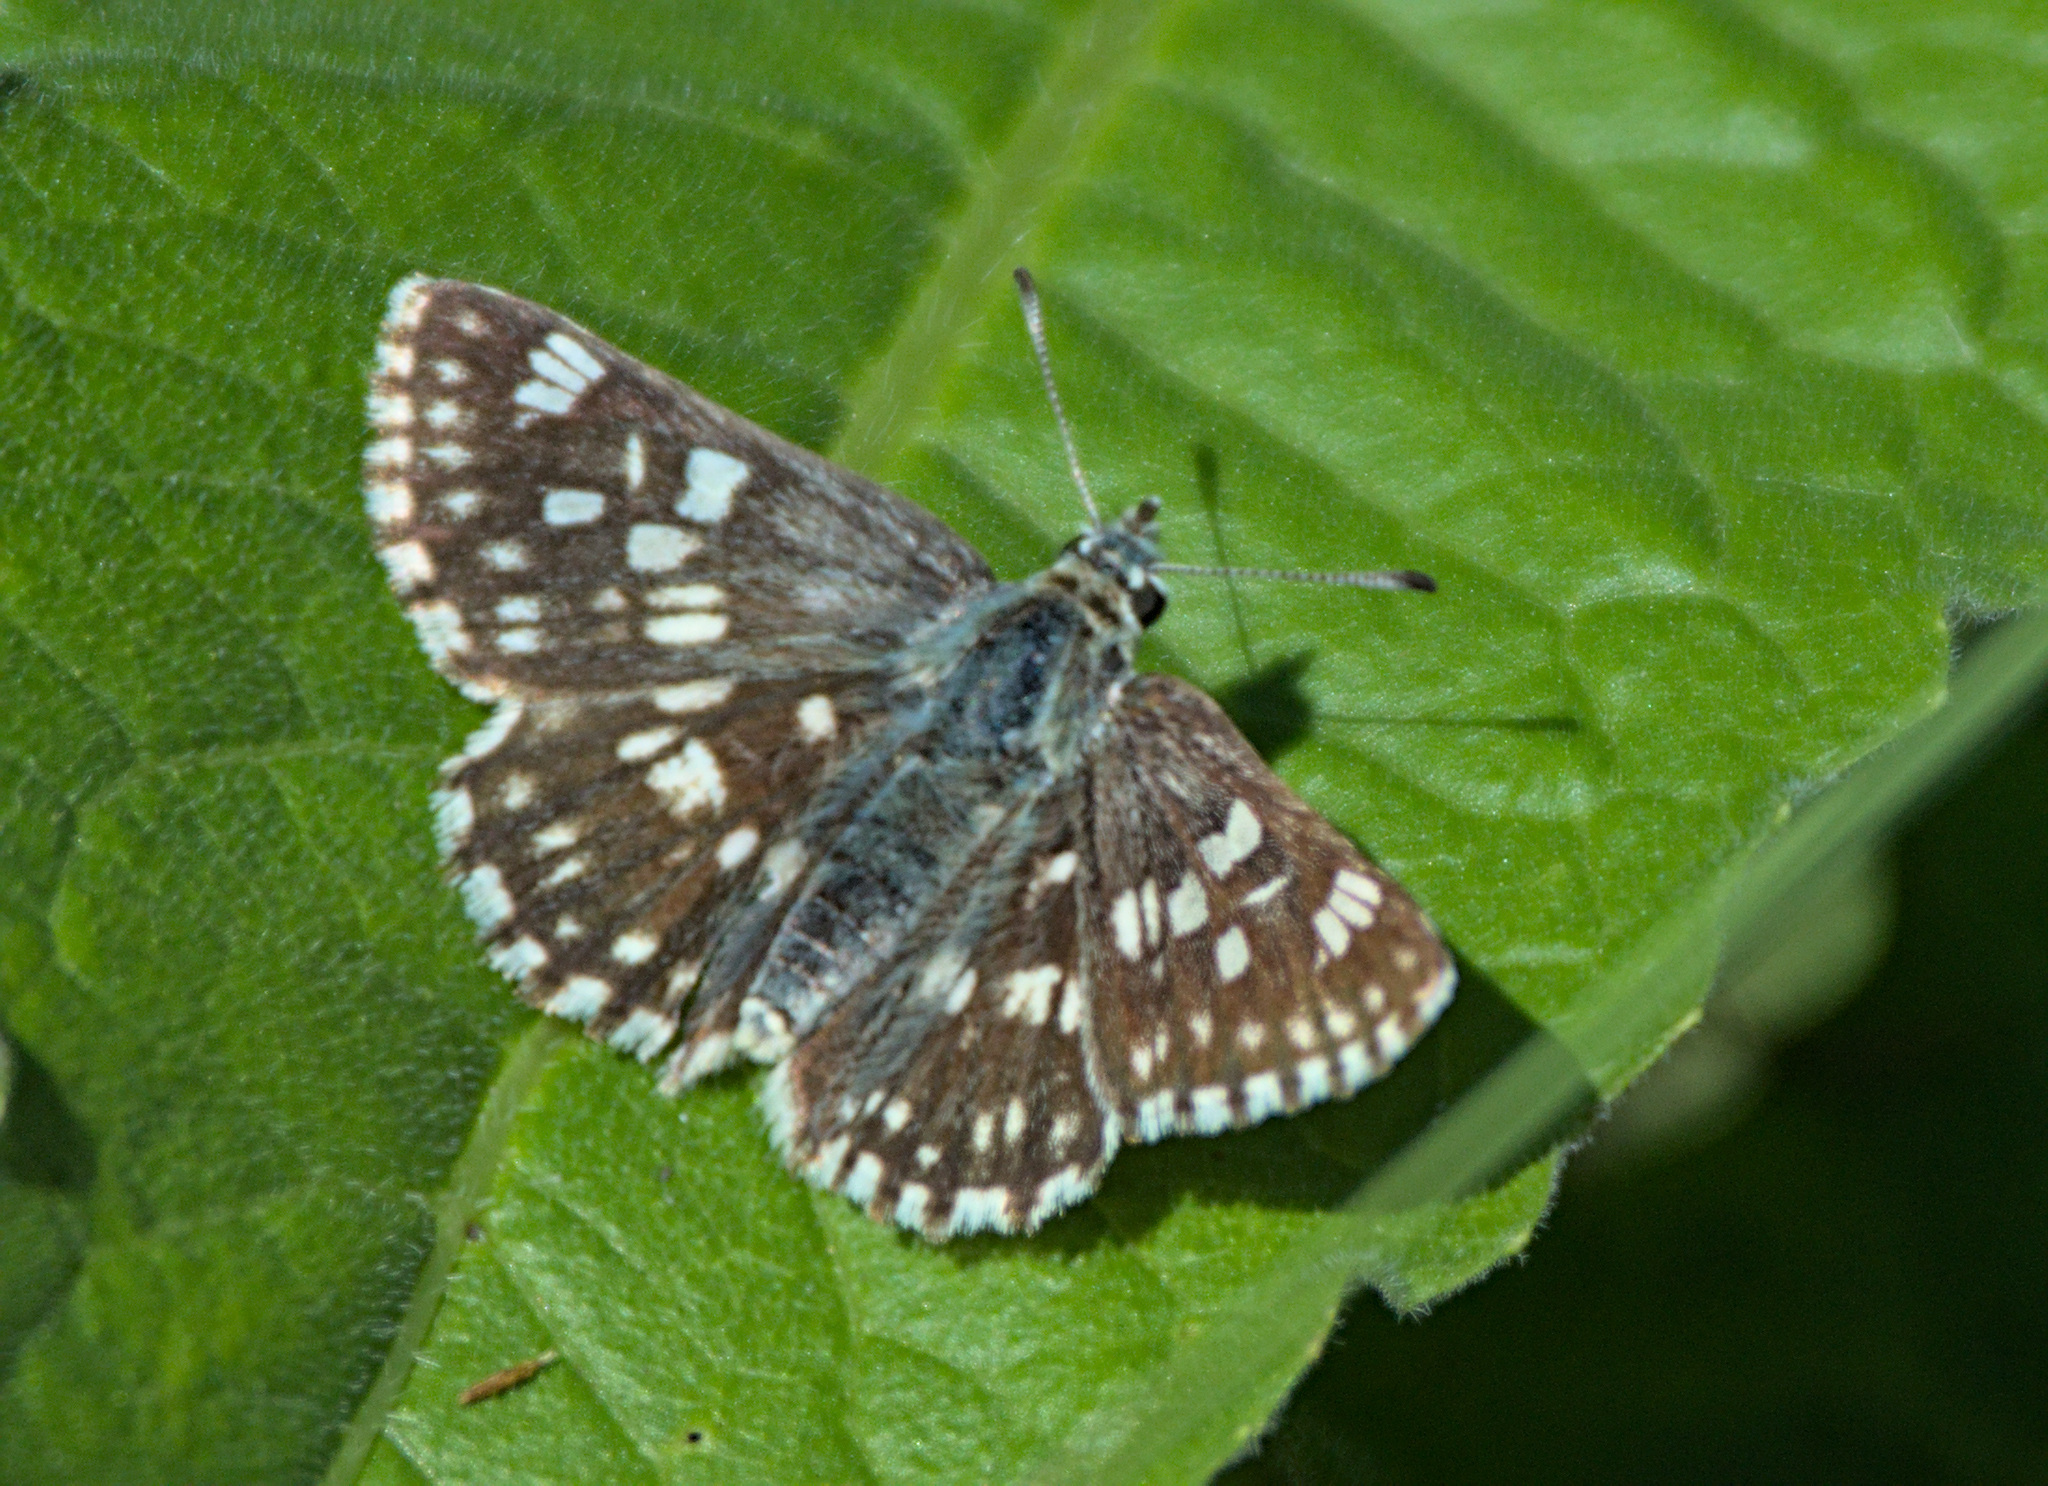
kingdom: Animalia
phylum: Arthropoda
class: Insecta
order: Lepidoptera
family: Hesperiidae
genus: Syrichtus
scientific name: Syrichtus tessellum
